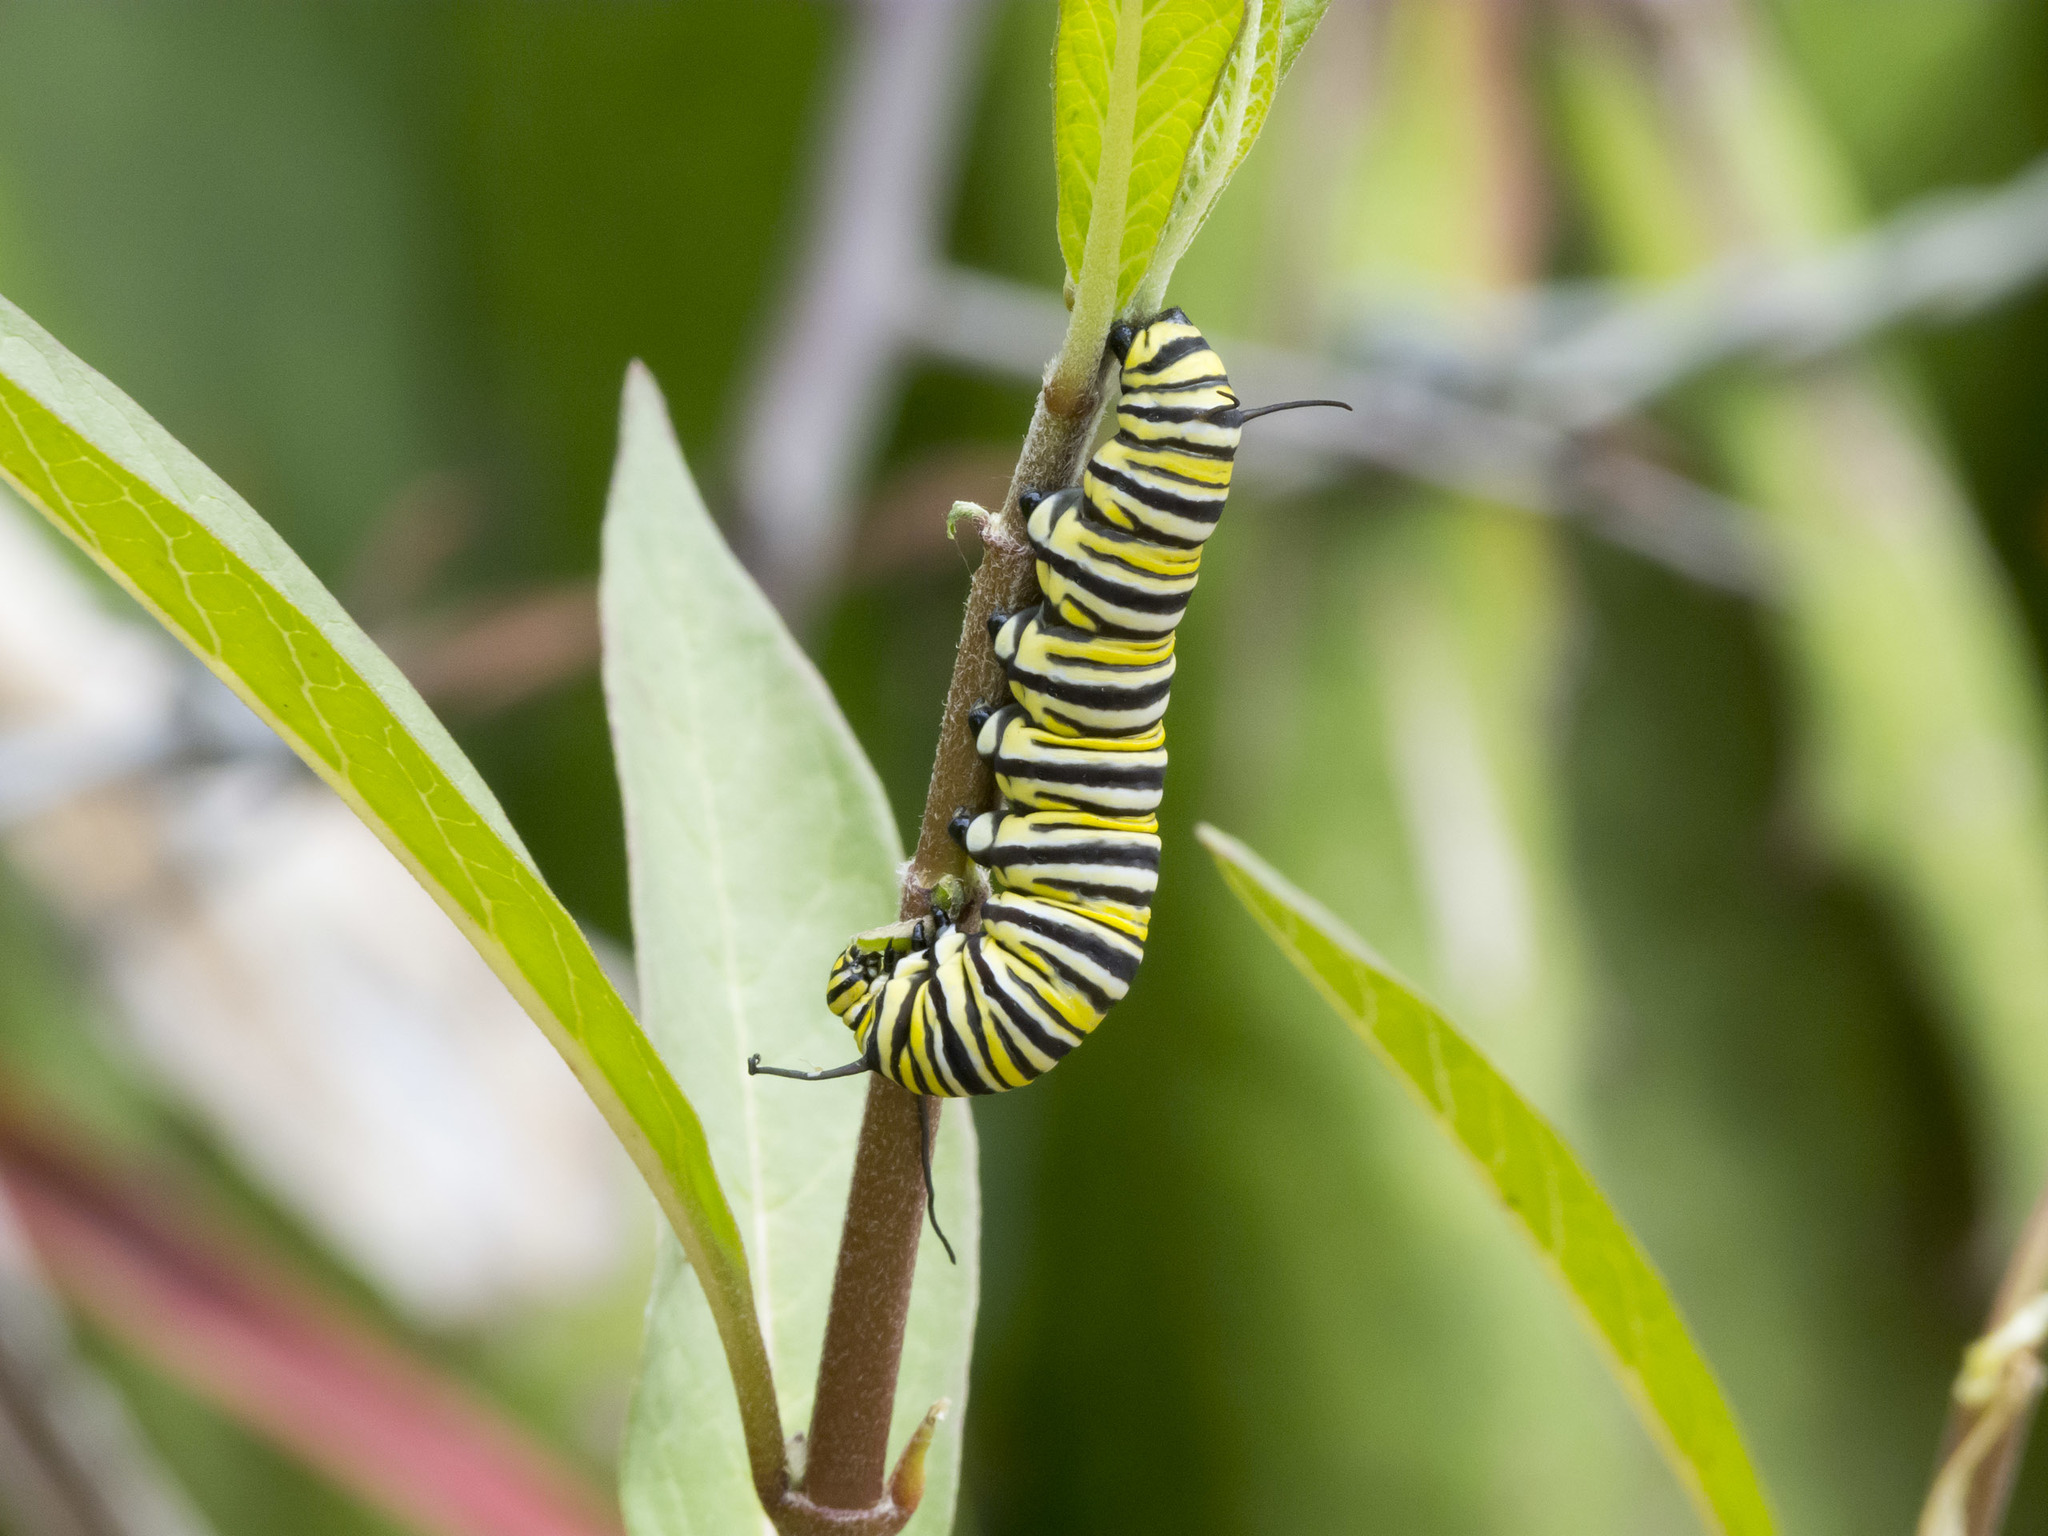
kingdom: Animalia
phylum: Arthropoda
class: Insecta
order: Lepidoptera
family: Nymphalidae
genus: Danaus
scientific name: Danaus plexippus
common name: Monarch
